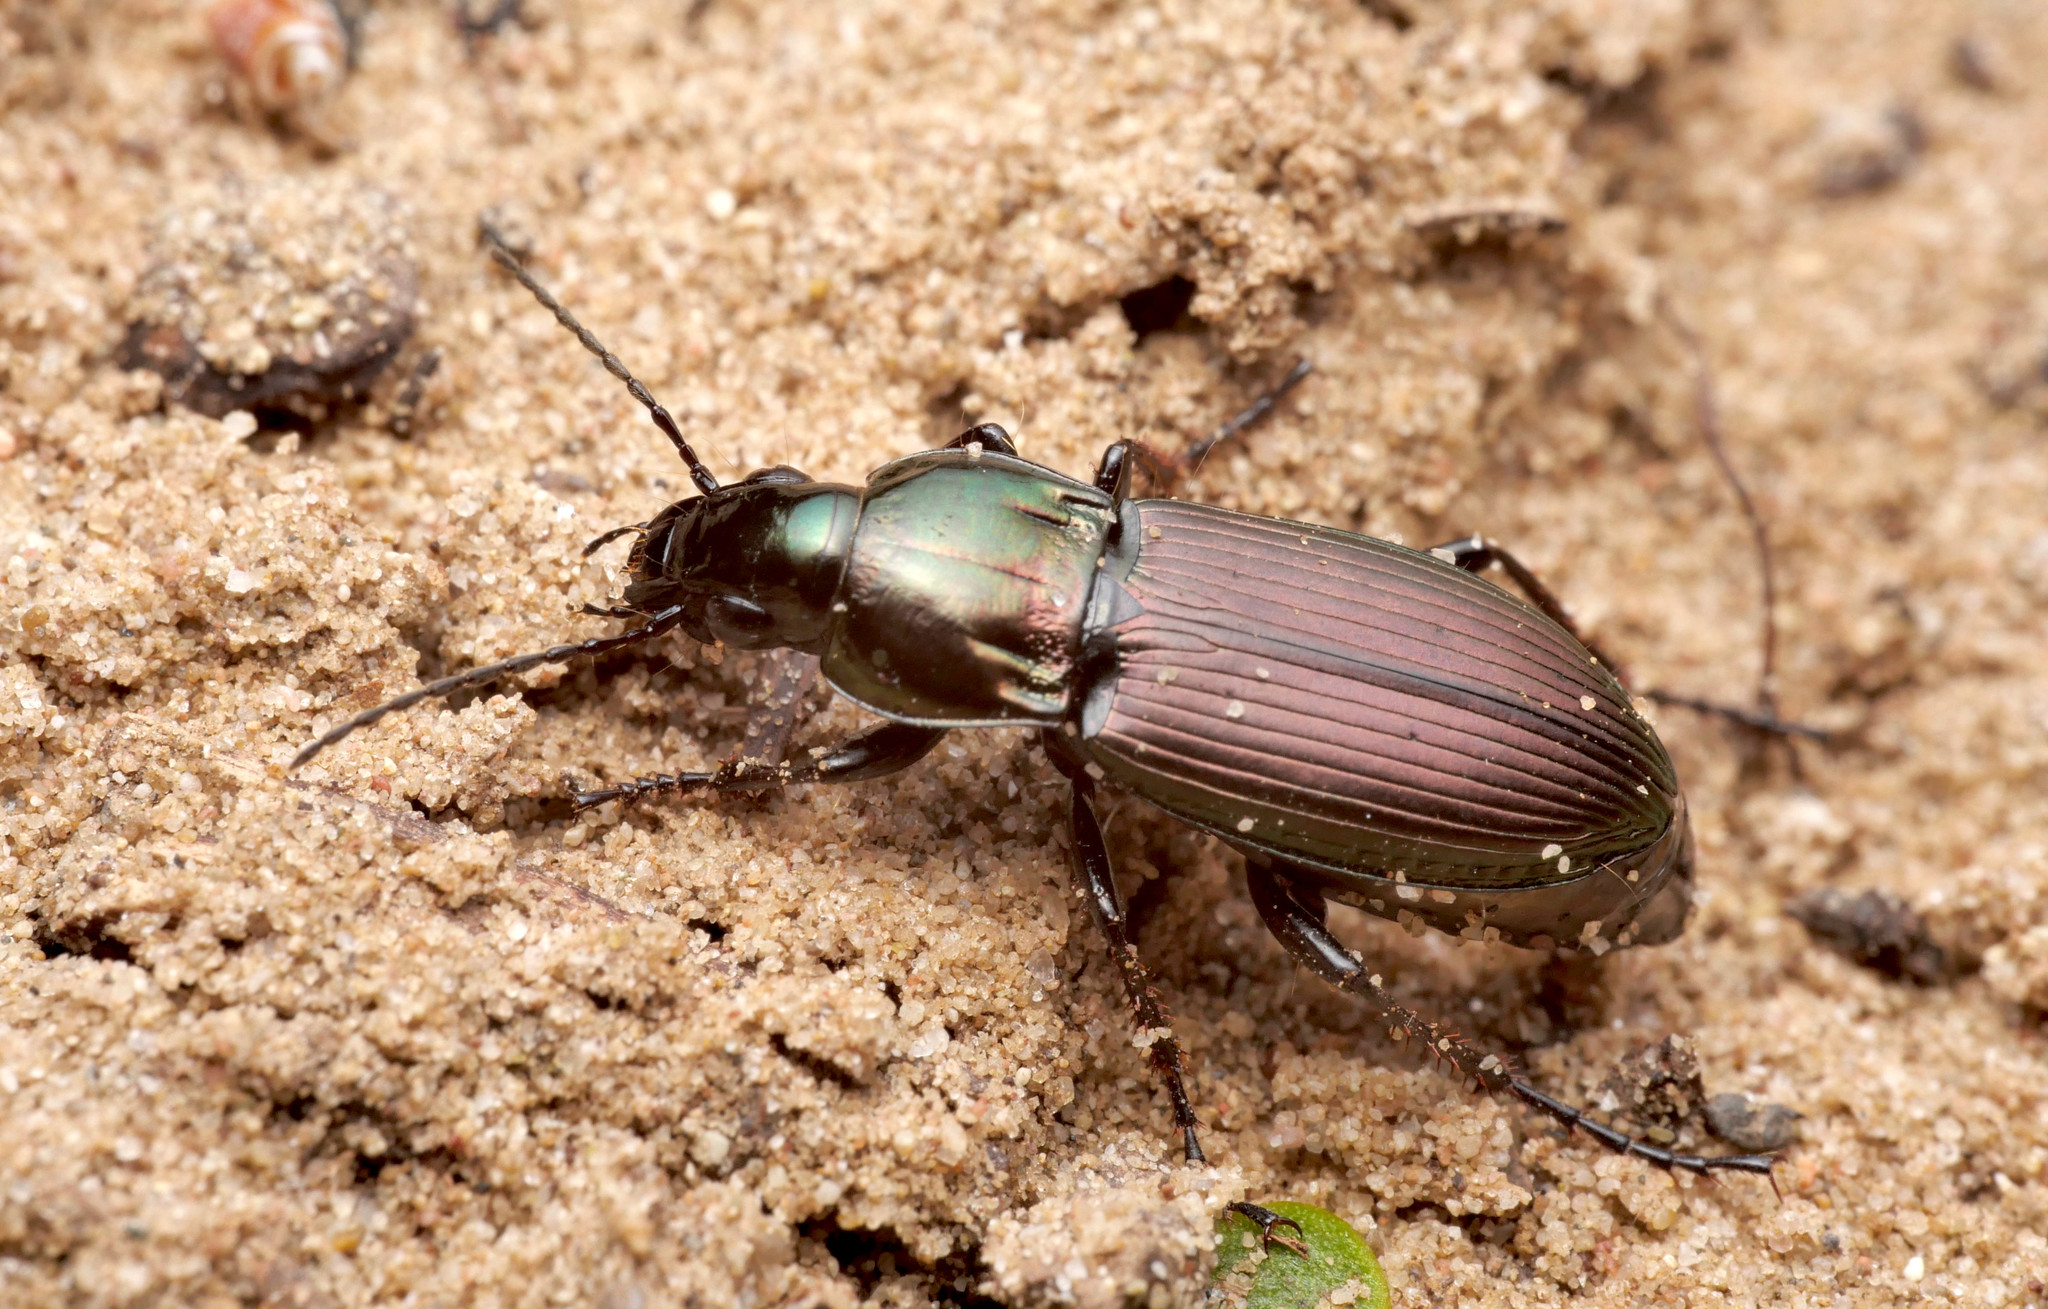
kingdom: Animalia
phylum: Arthropoda
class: Insecta
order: Coleoptera
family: Carabidae
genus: Poecilus
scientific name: Poecilus lepidus
